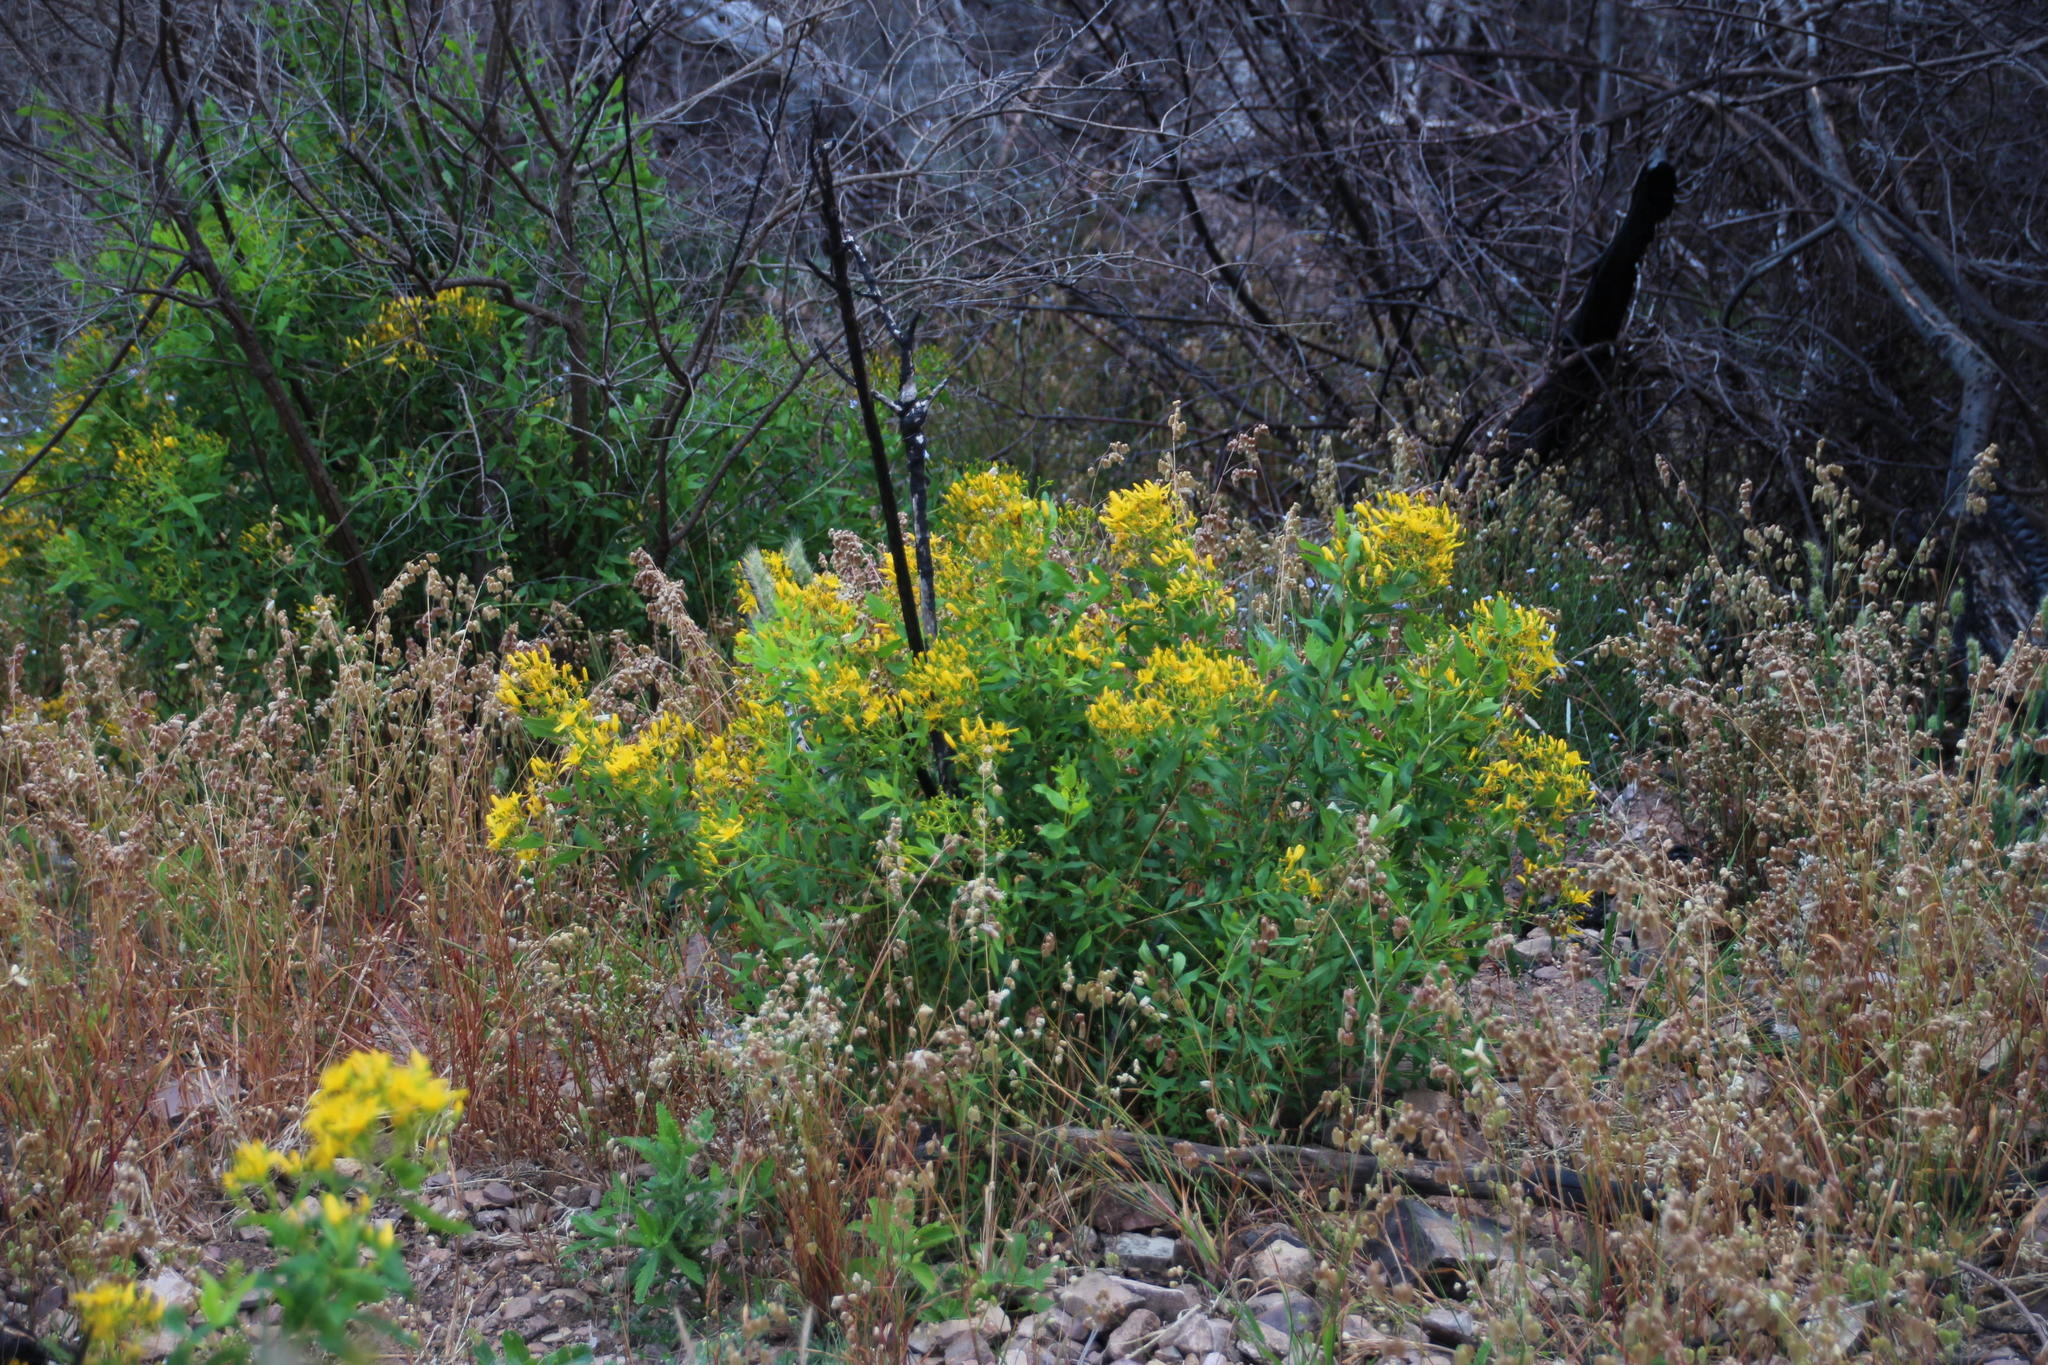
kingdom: Plantae
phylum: Tracheophyta
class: Magnoliopsida
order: Malpighiales
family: Hypericaceae
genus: Hypericum
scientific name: Hypericum canariense
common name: Canary island st. johnswort
